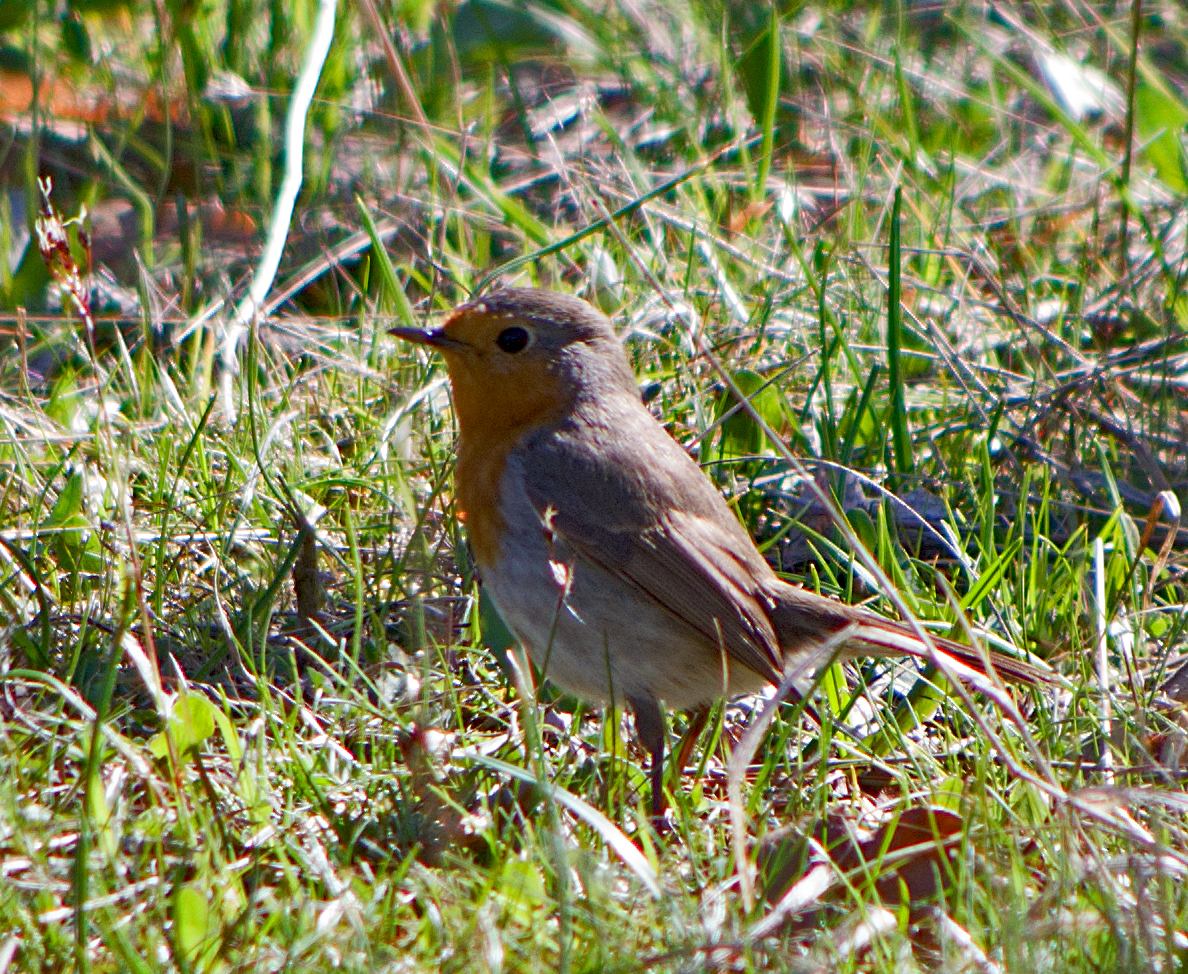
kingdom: Animalia
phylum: Chordata
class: Aves
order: Passeriformes
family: Muscicapidae
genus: Erithacus
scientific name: Erithacus rubecula
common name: European robin
